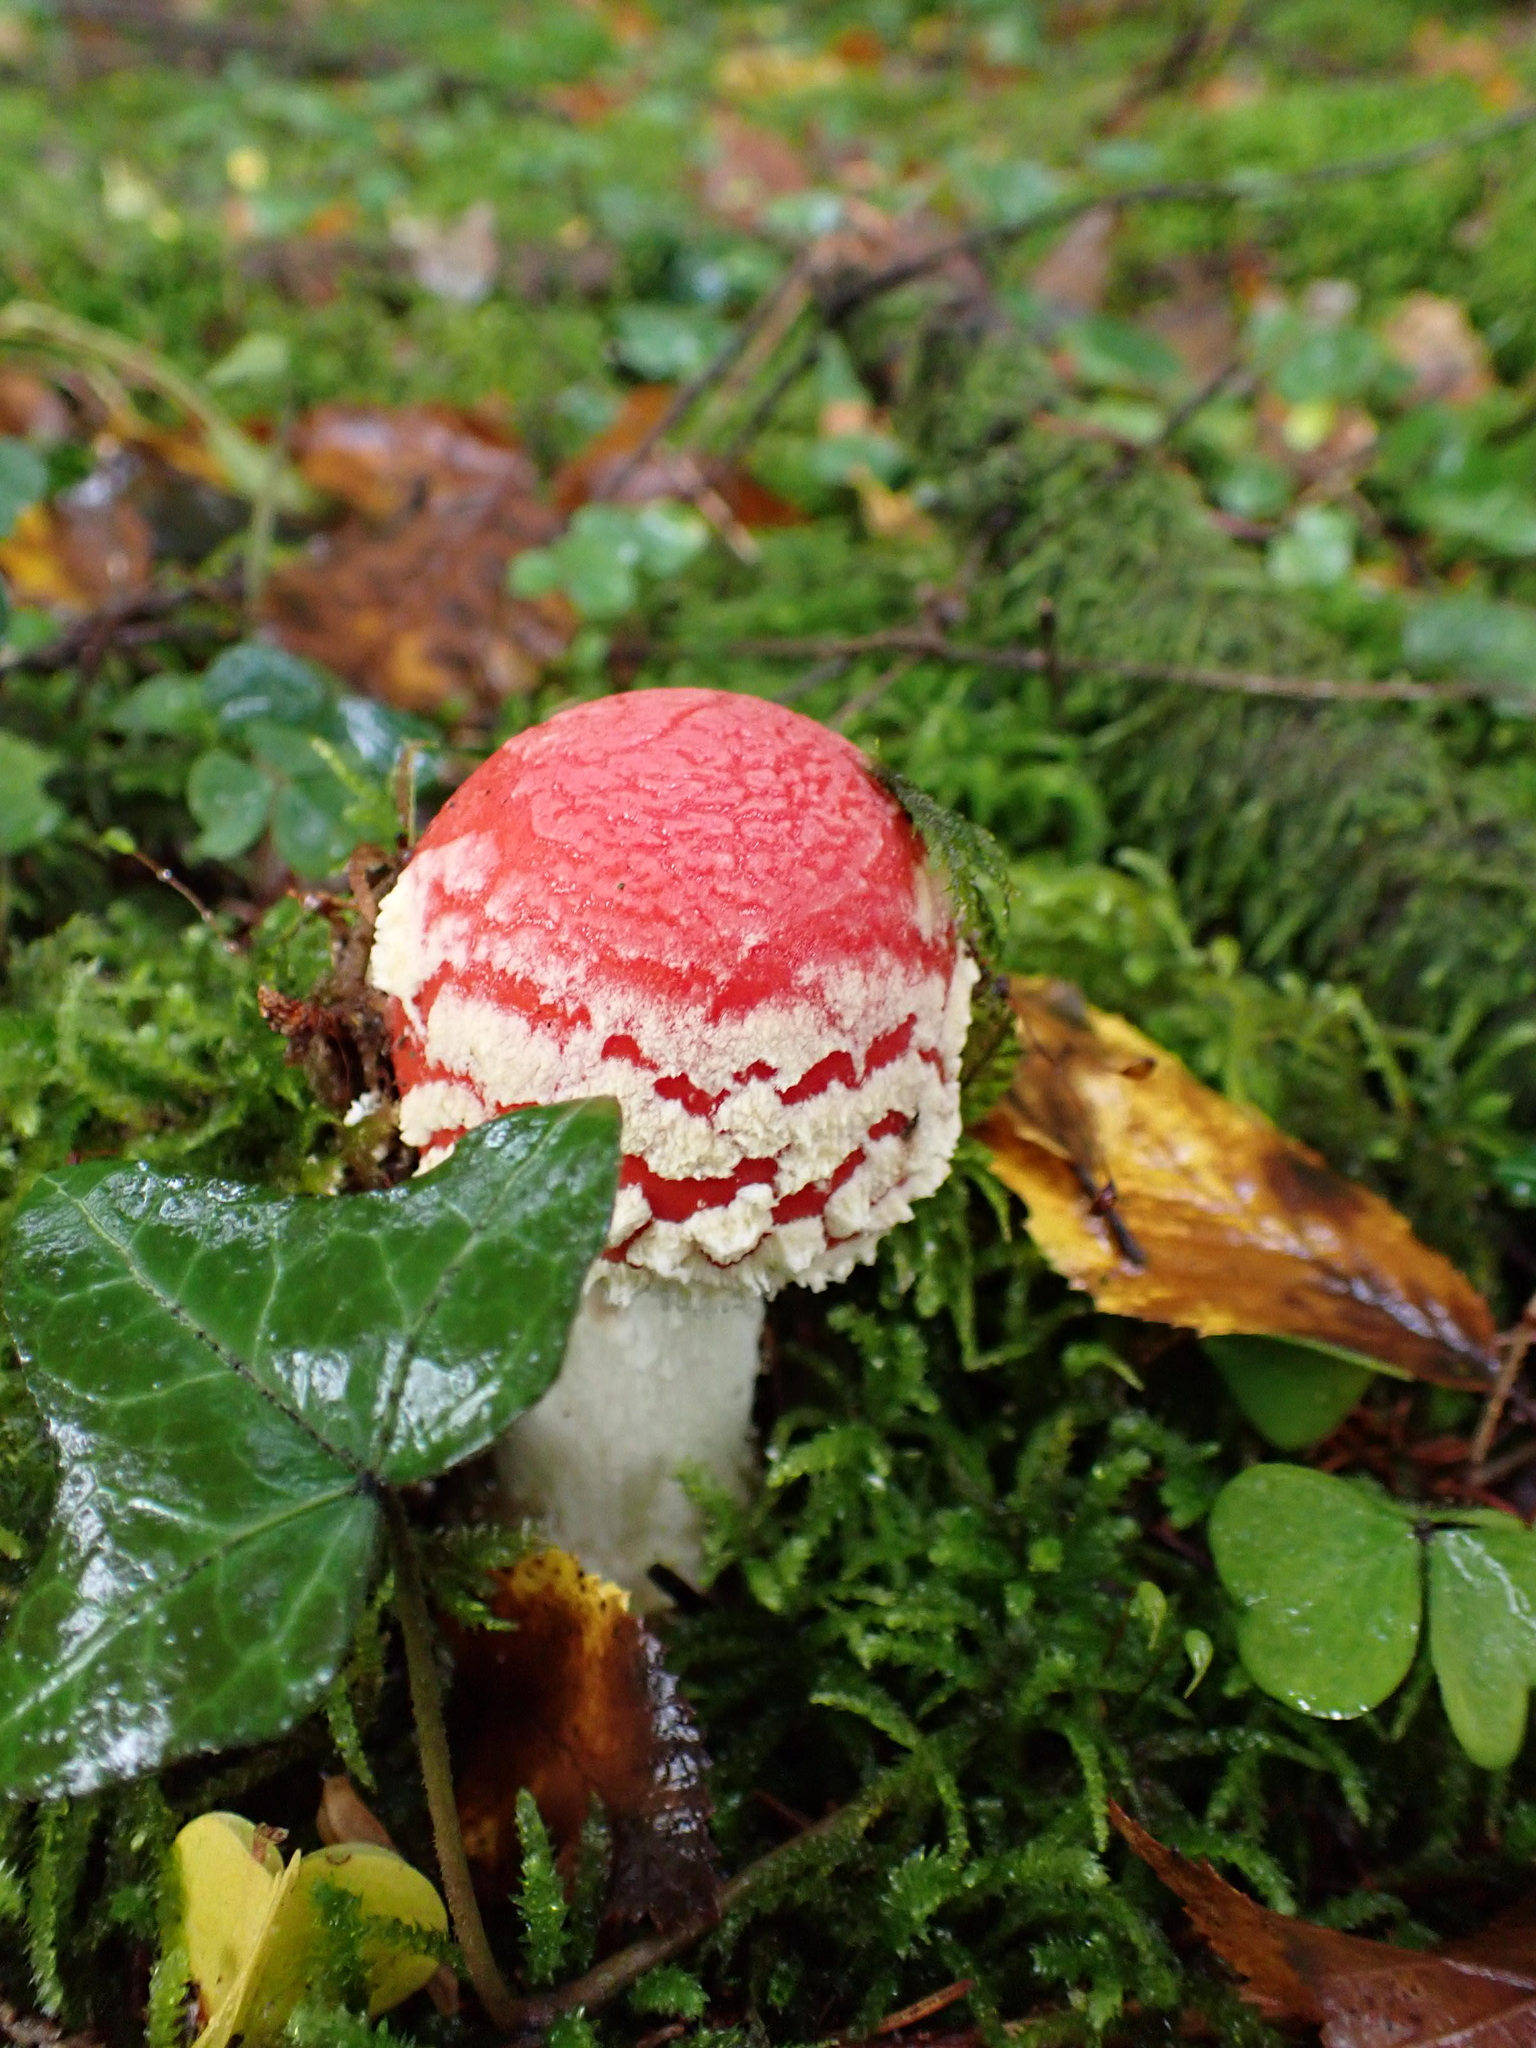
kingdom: Fungi
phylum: Basidiomycota
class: Agaricomycetes
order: Agaricales
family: Amanitaceae
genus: Amanita
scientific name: Amanita muscaria
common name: Fly agaric
